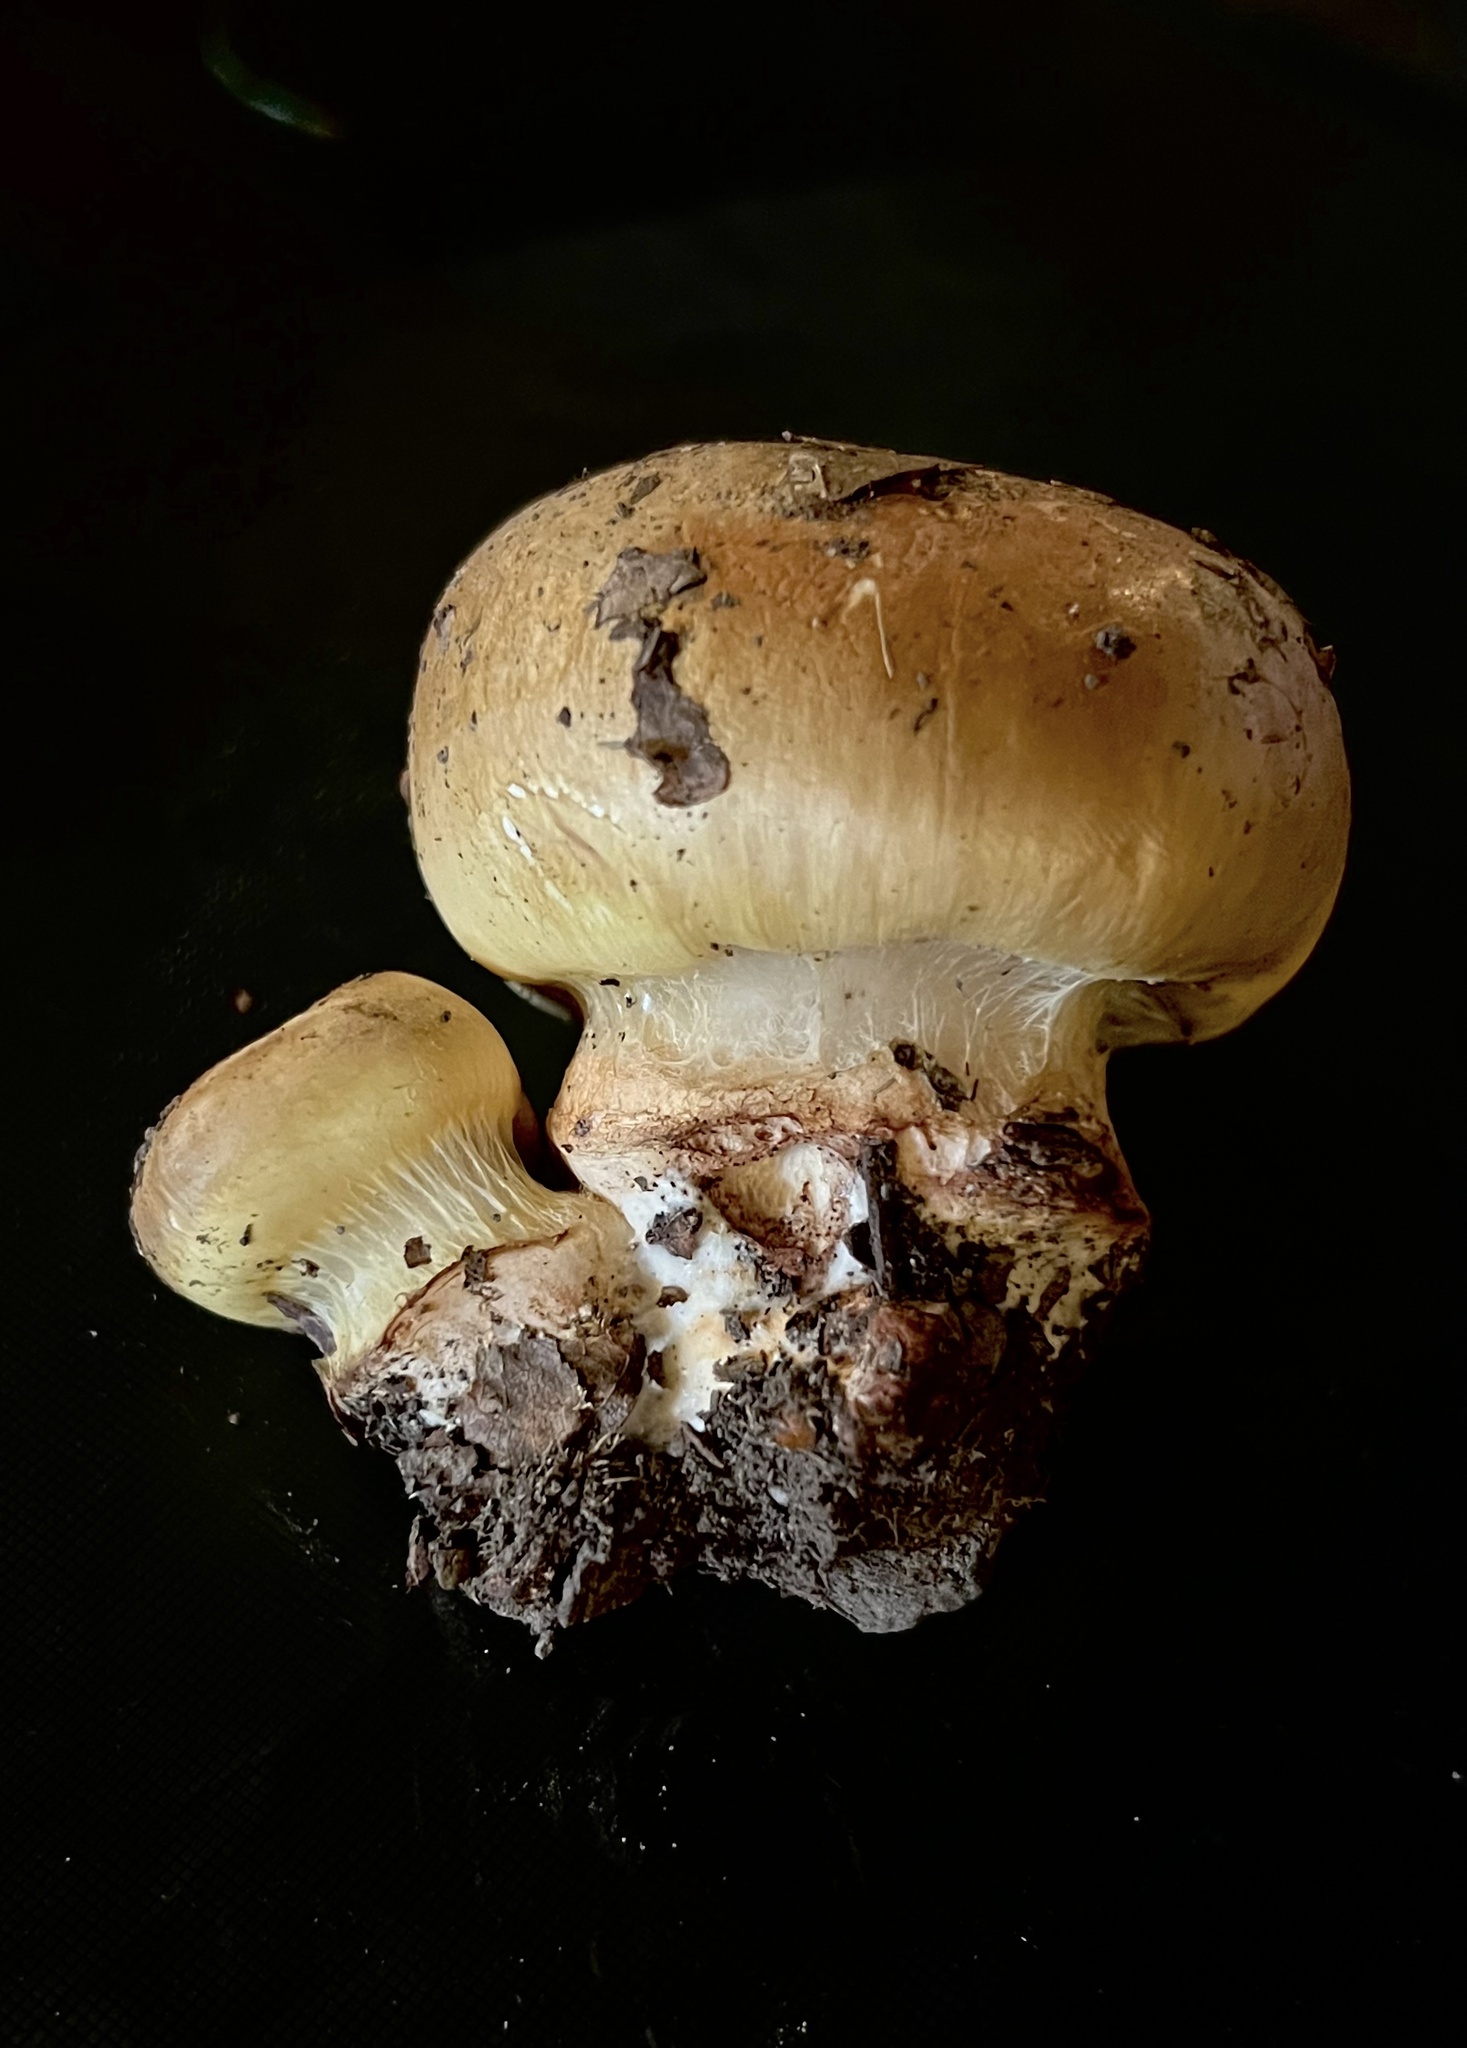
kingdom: Fungi
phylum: Basidiomycota
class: Agaricomycetes
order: Agaricales
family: Cortinariaceae
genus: Cortinarius
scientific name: Cortinarius atkinsonianus
